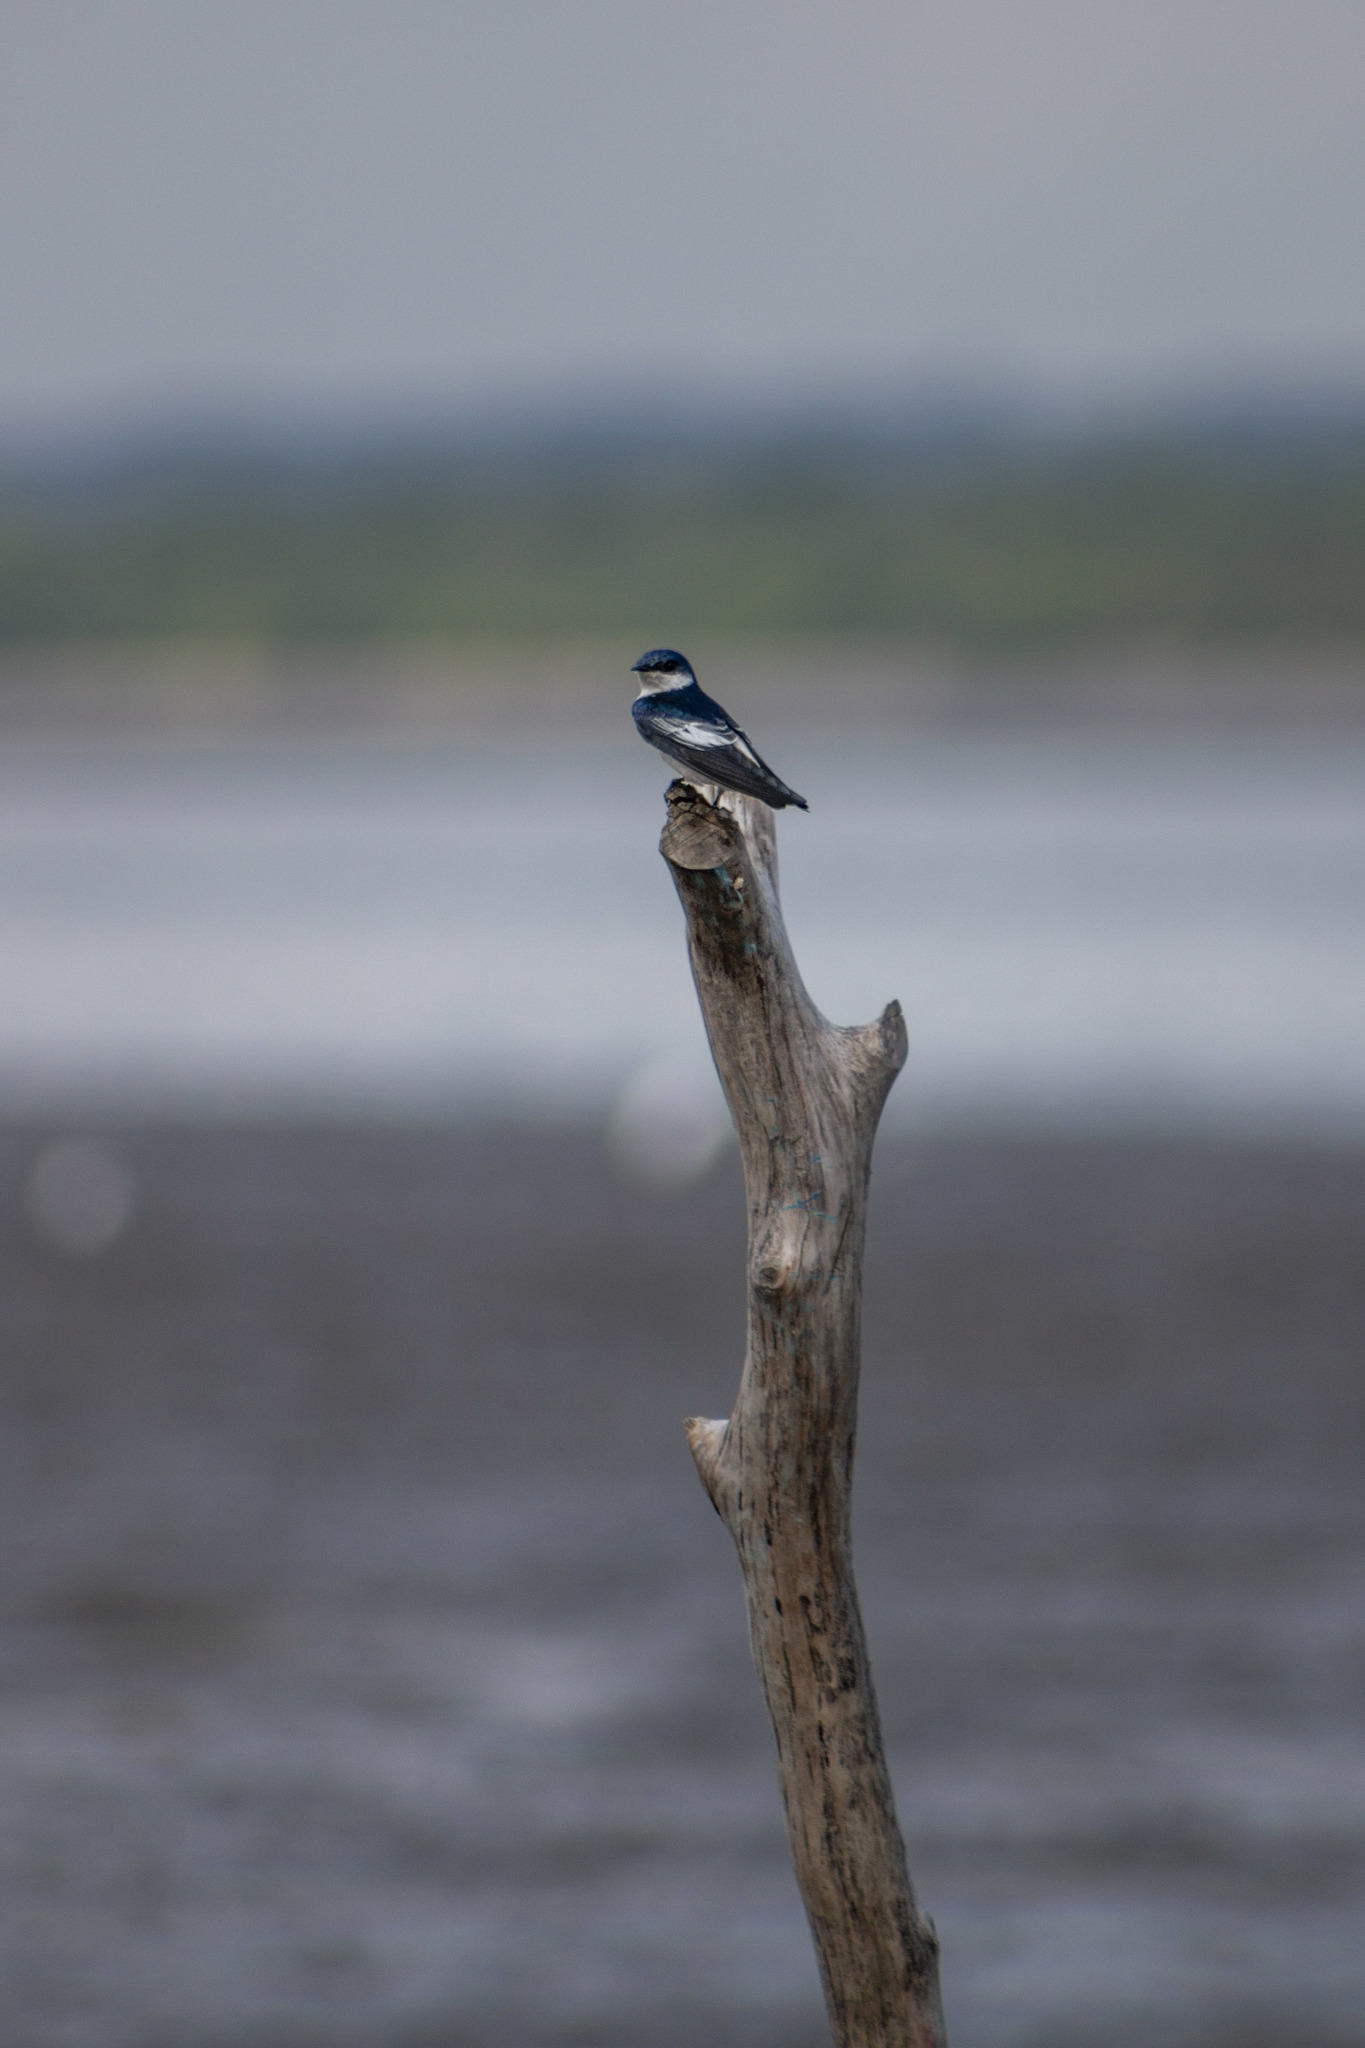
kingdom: Animalia
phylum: Chordata
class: Aves
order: Passeriformes
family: Hirundinidae
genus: Tachycineta
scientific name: Tachycineta albiventer
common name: White-winged swallow
